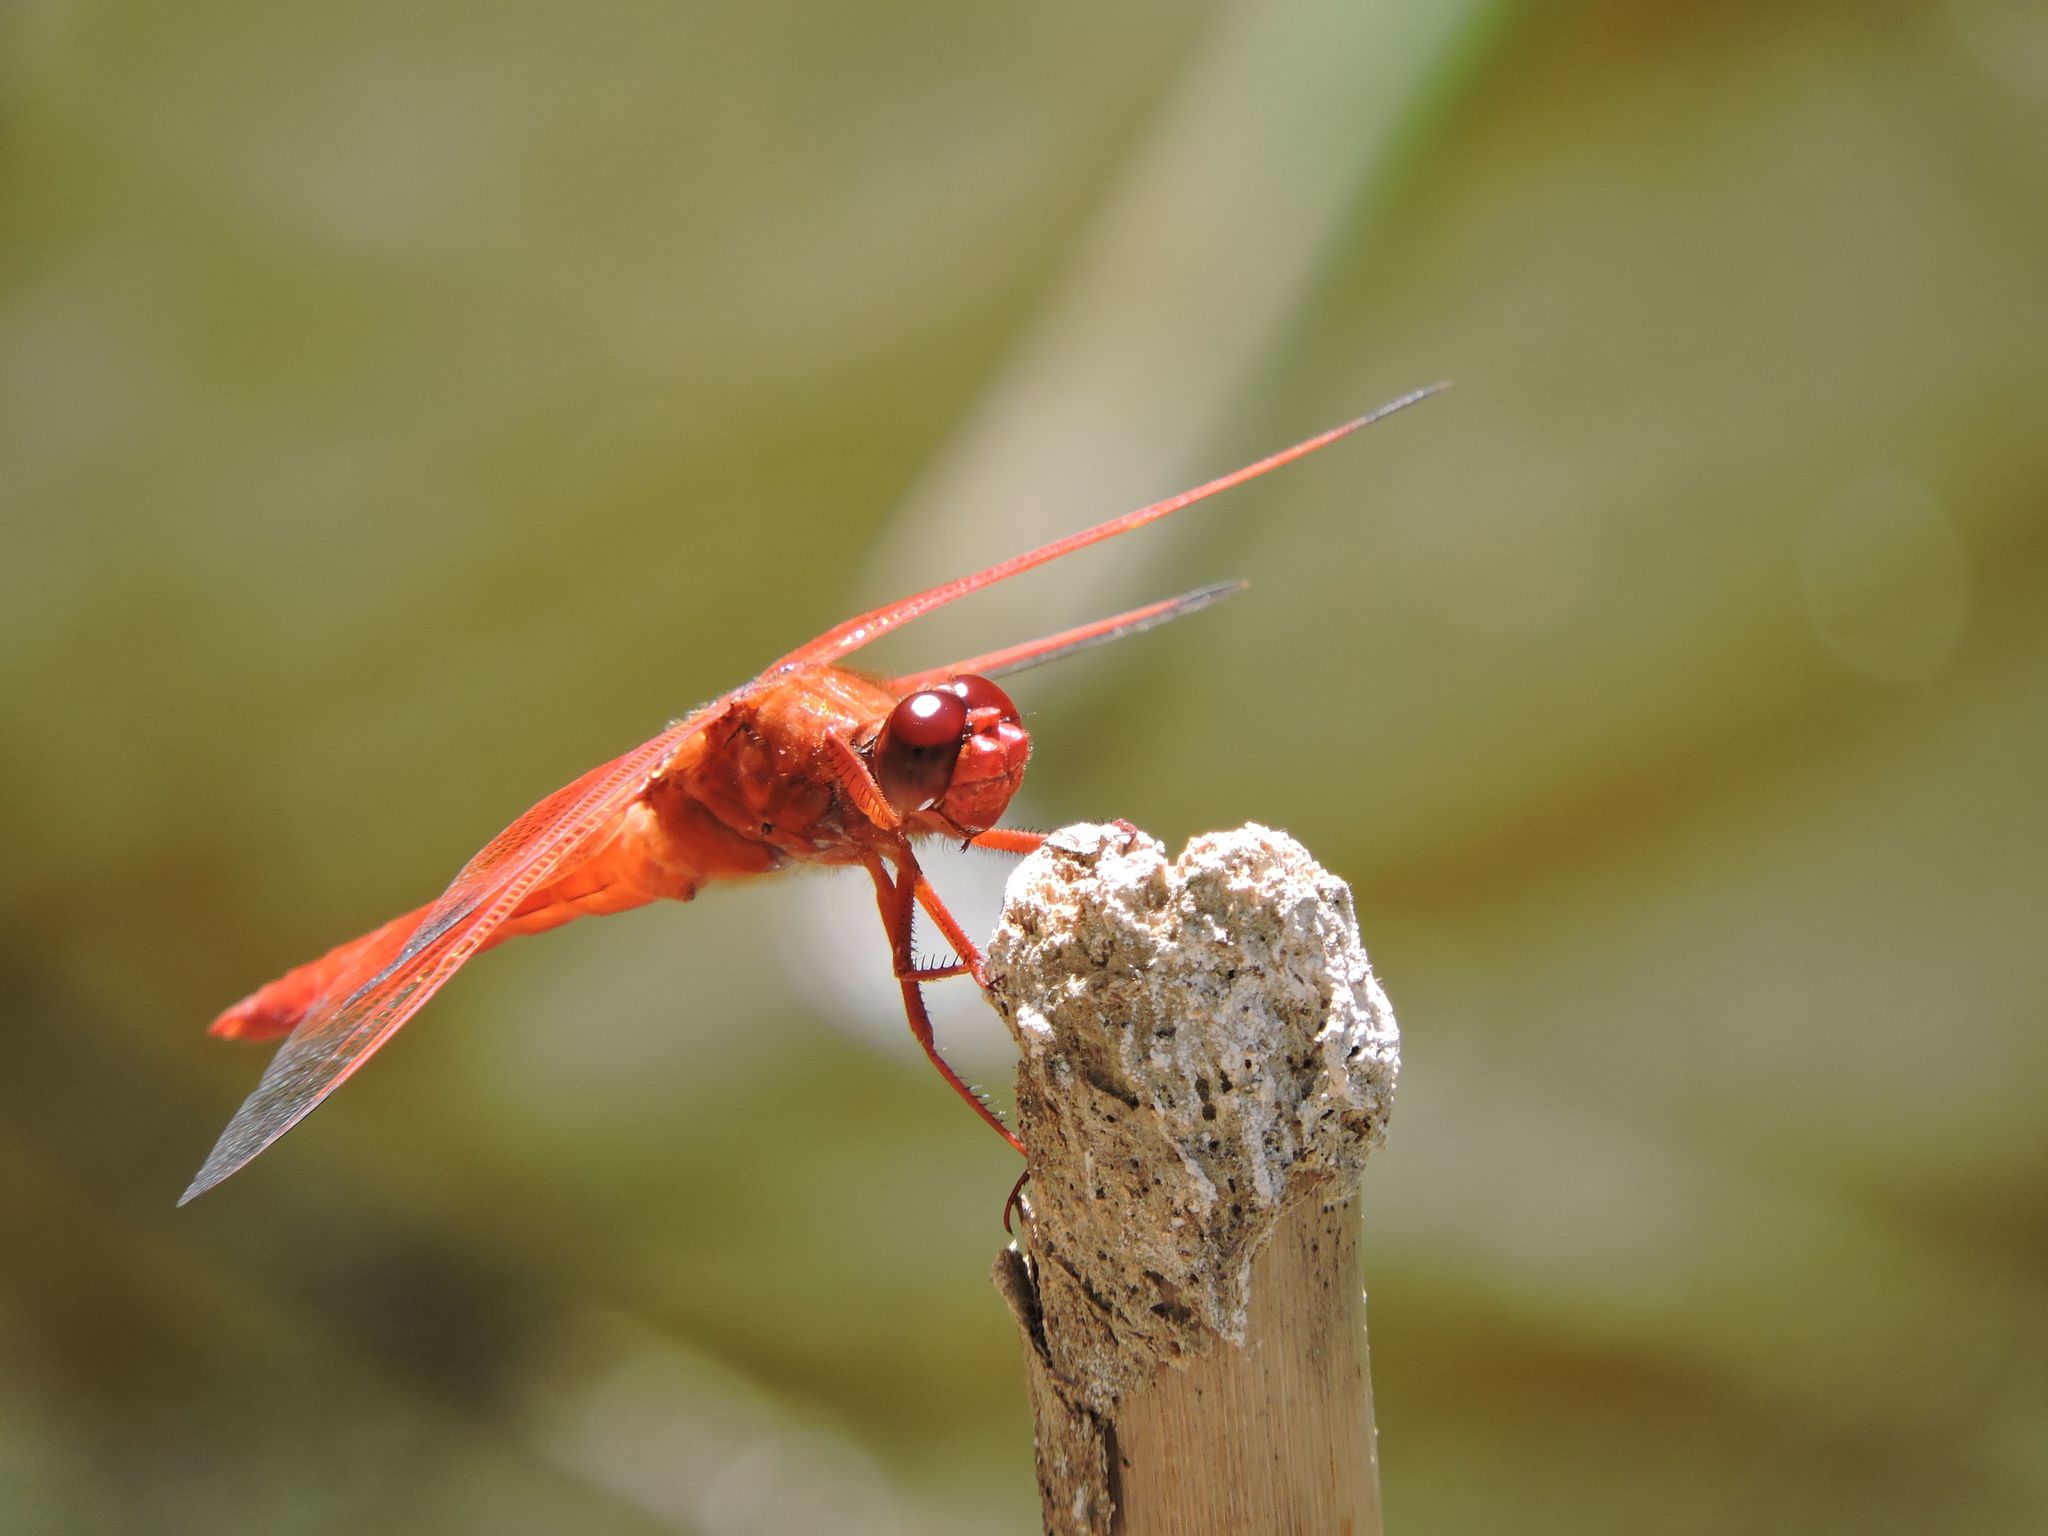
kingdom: Animalia
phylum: Arthropoda
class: Insecta
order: Odonata
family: Libellulidae
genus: Libellula
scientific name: Libellula saturata
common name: Flame skimmer
